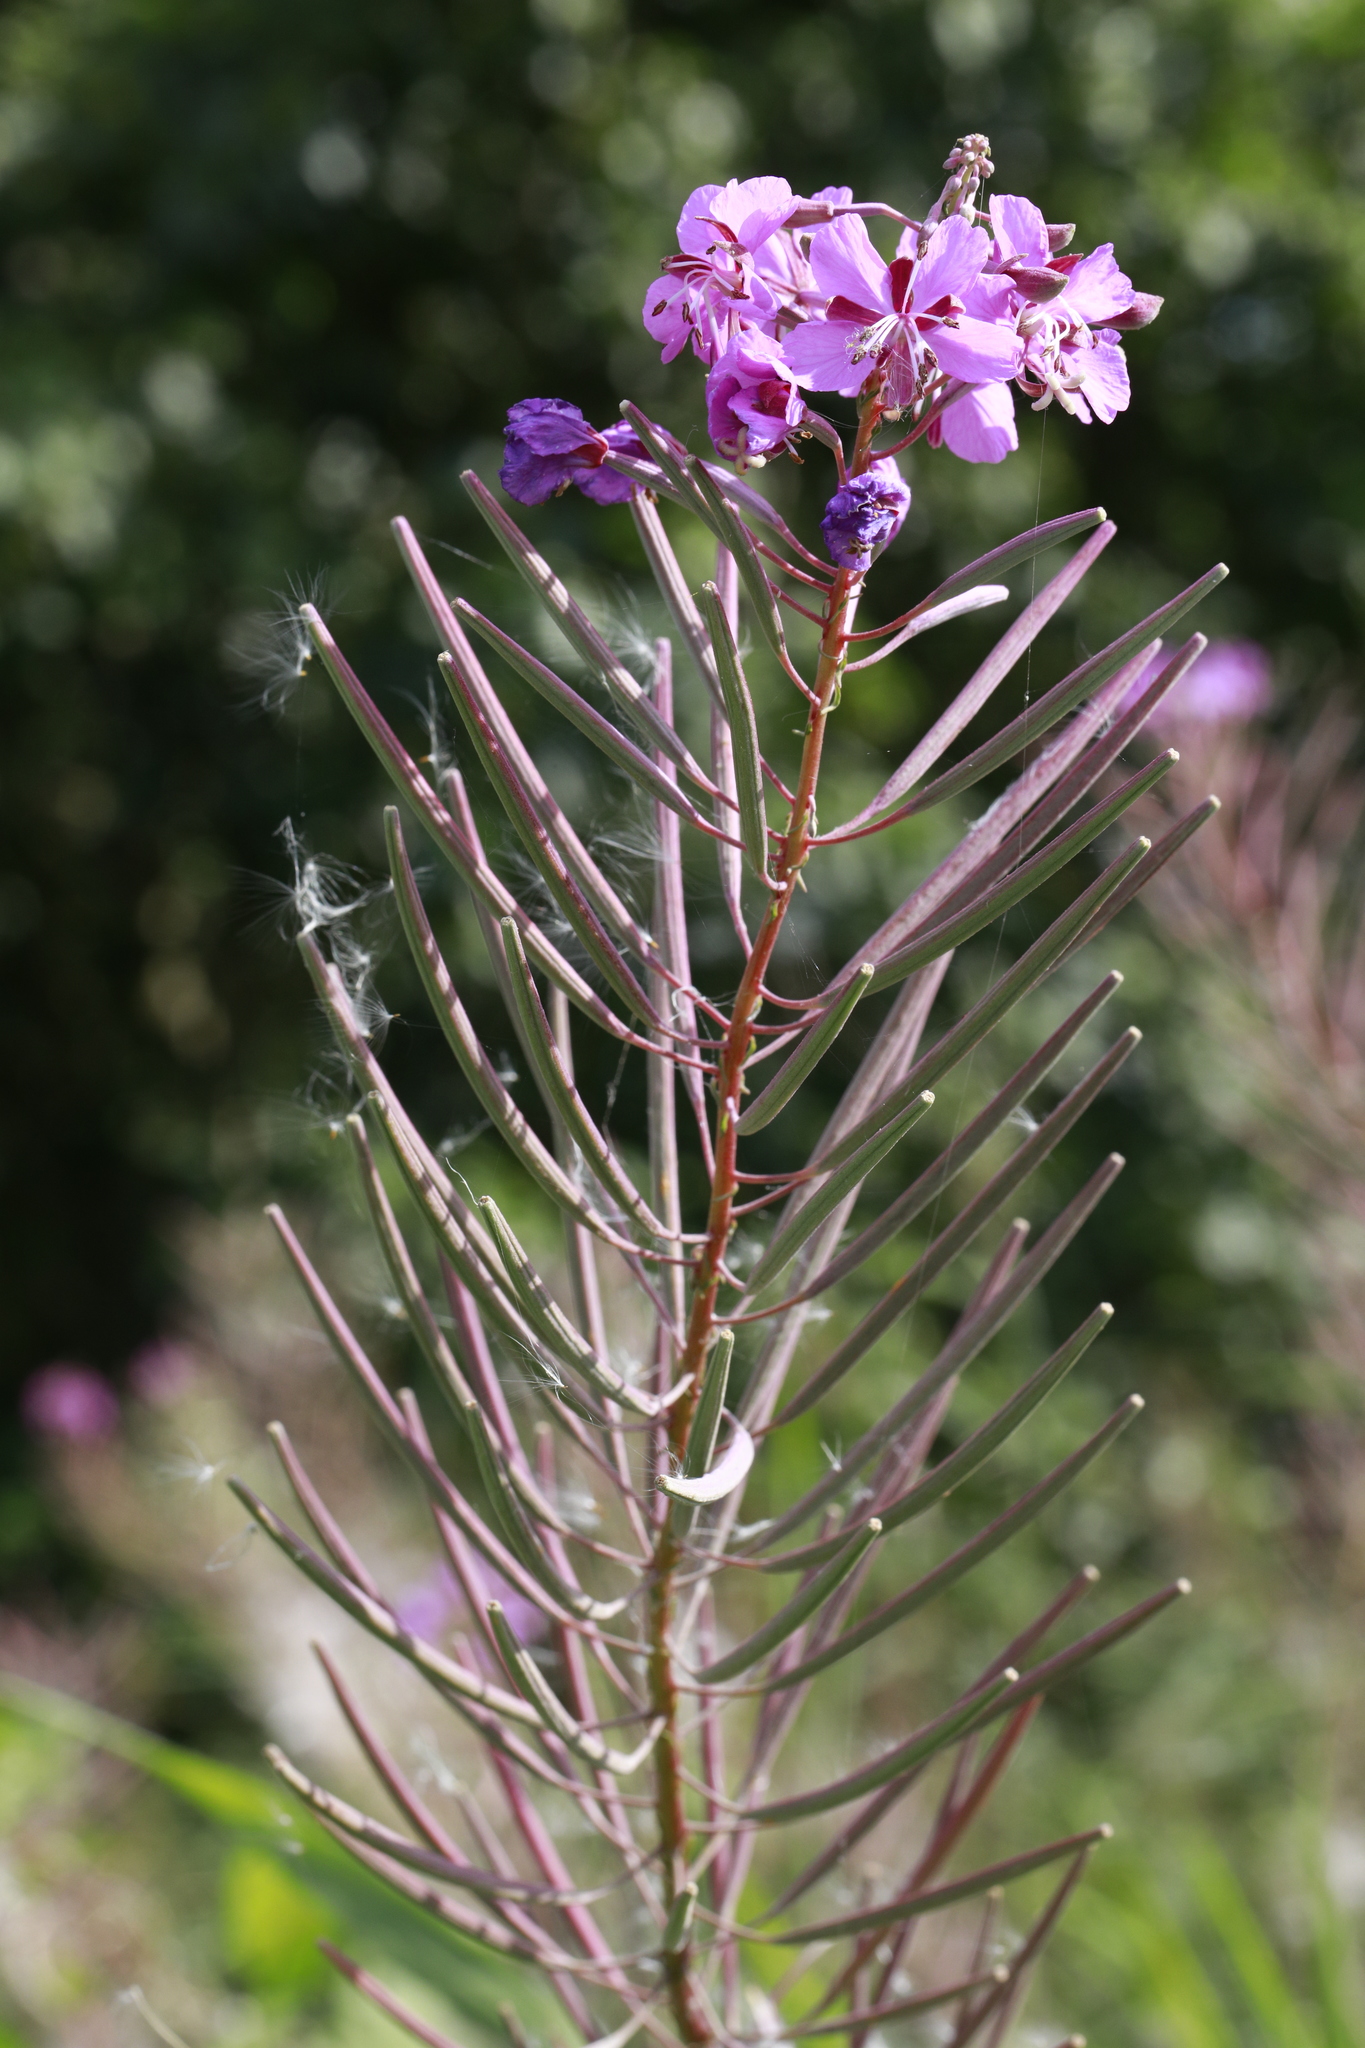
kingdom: Plantae
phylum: Tracheophyta
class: Magnoliopsida
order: Myrtales
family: Onagraceae
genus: Chamaenerion
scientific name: Chamaenerion angustifolium
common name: Fireweed
